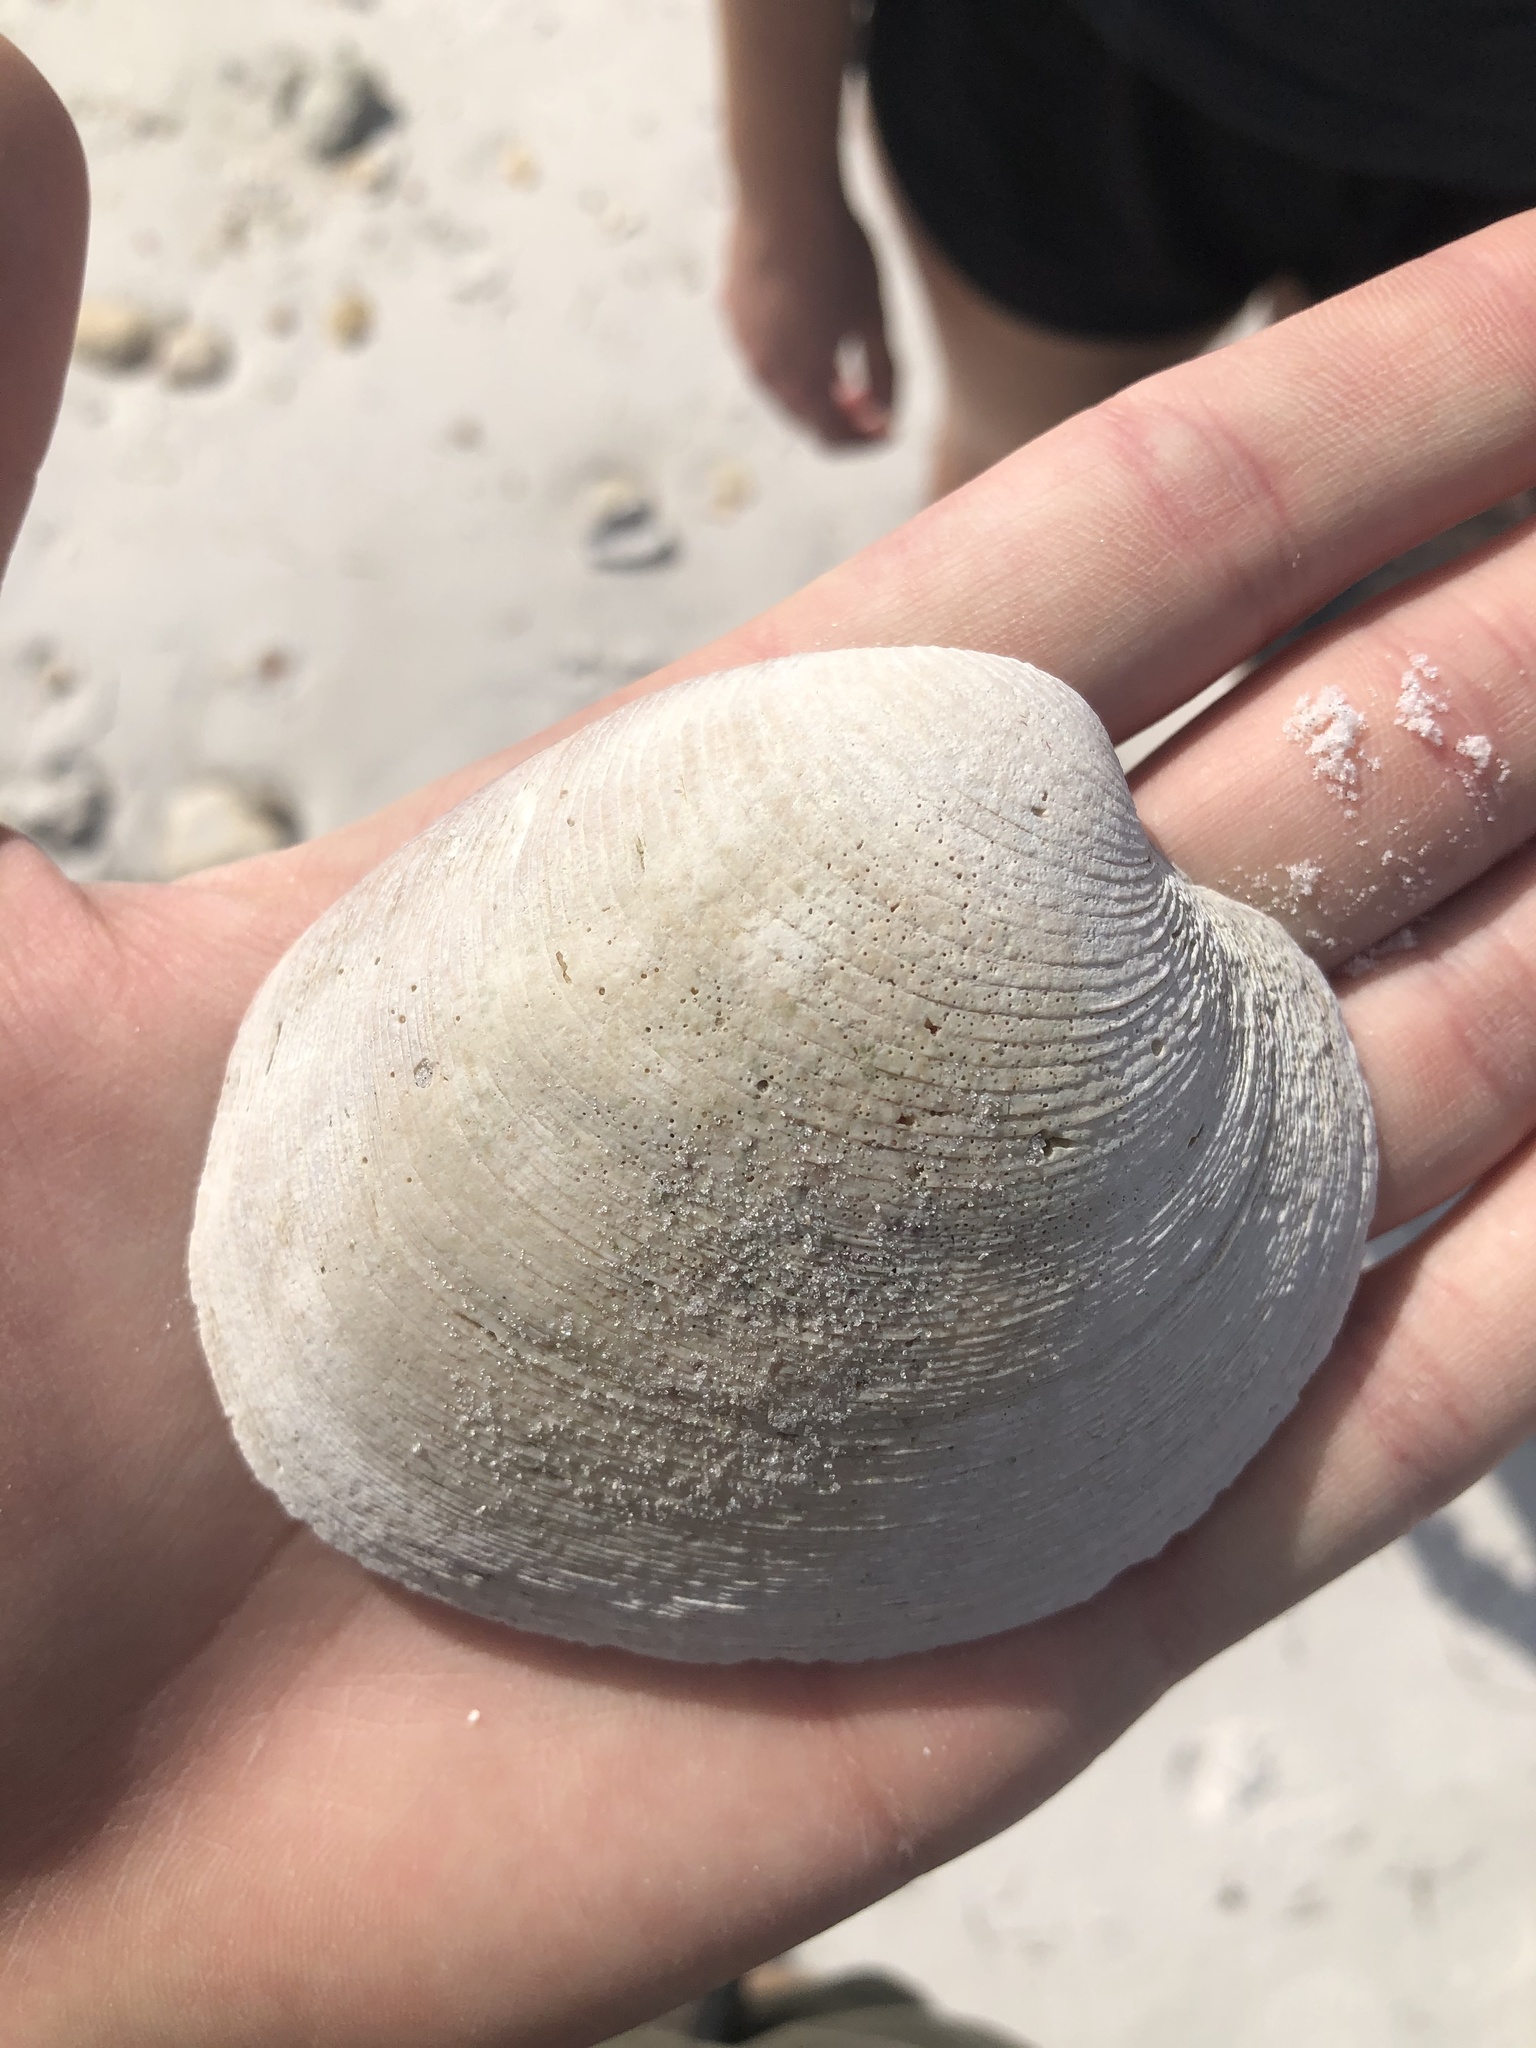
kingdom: Animalia
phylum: Mollusca
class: Bivalvia
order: Venerida
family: Veneridae
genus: Mercenaria
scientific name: Mercenaria campechiensis
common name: Südliche quahog-muschel
